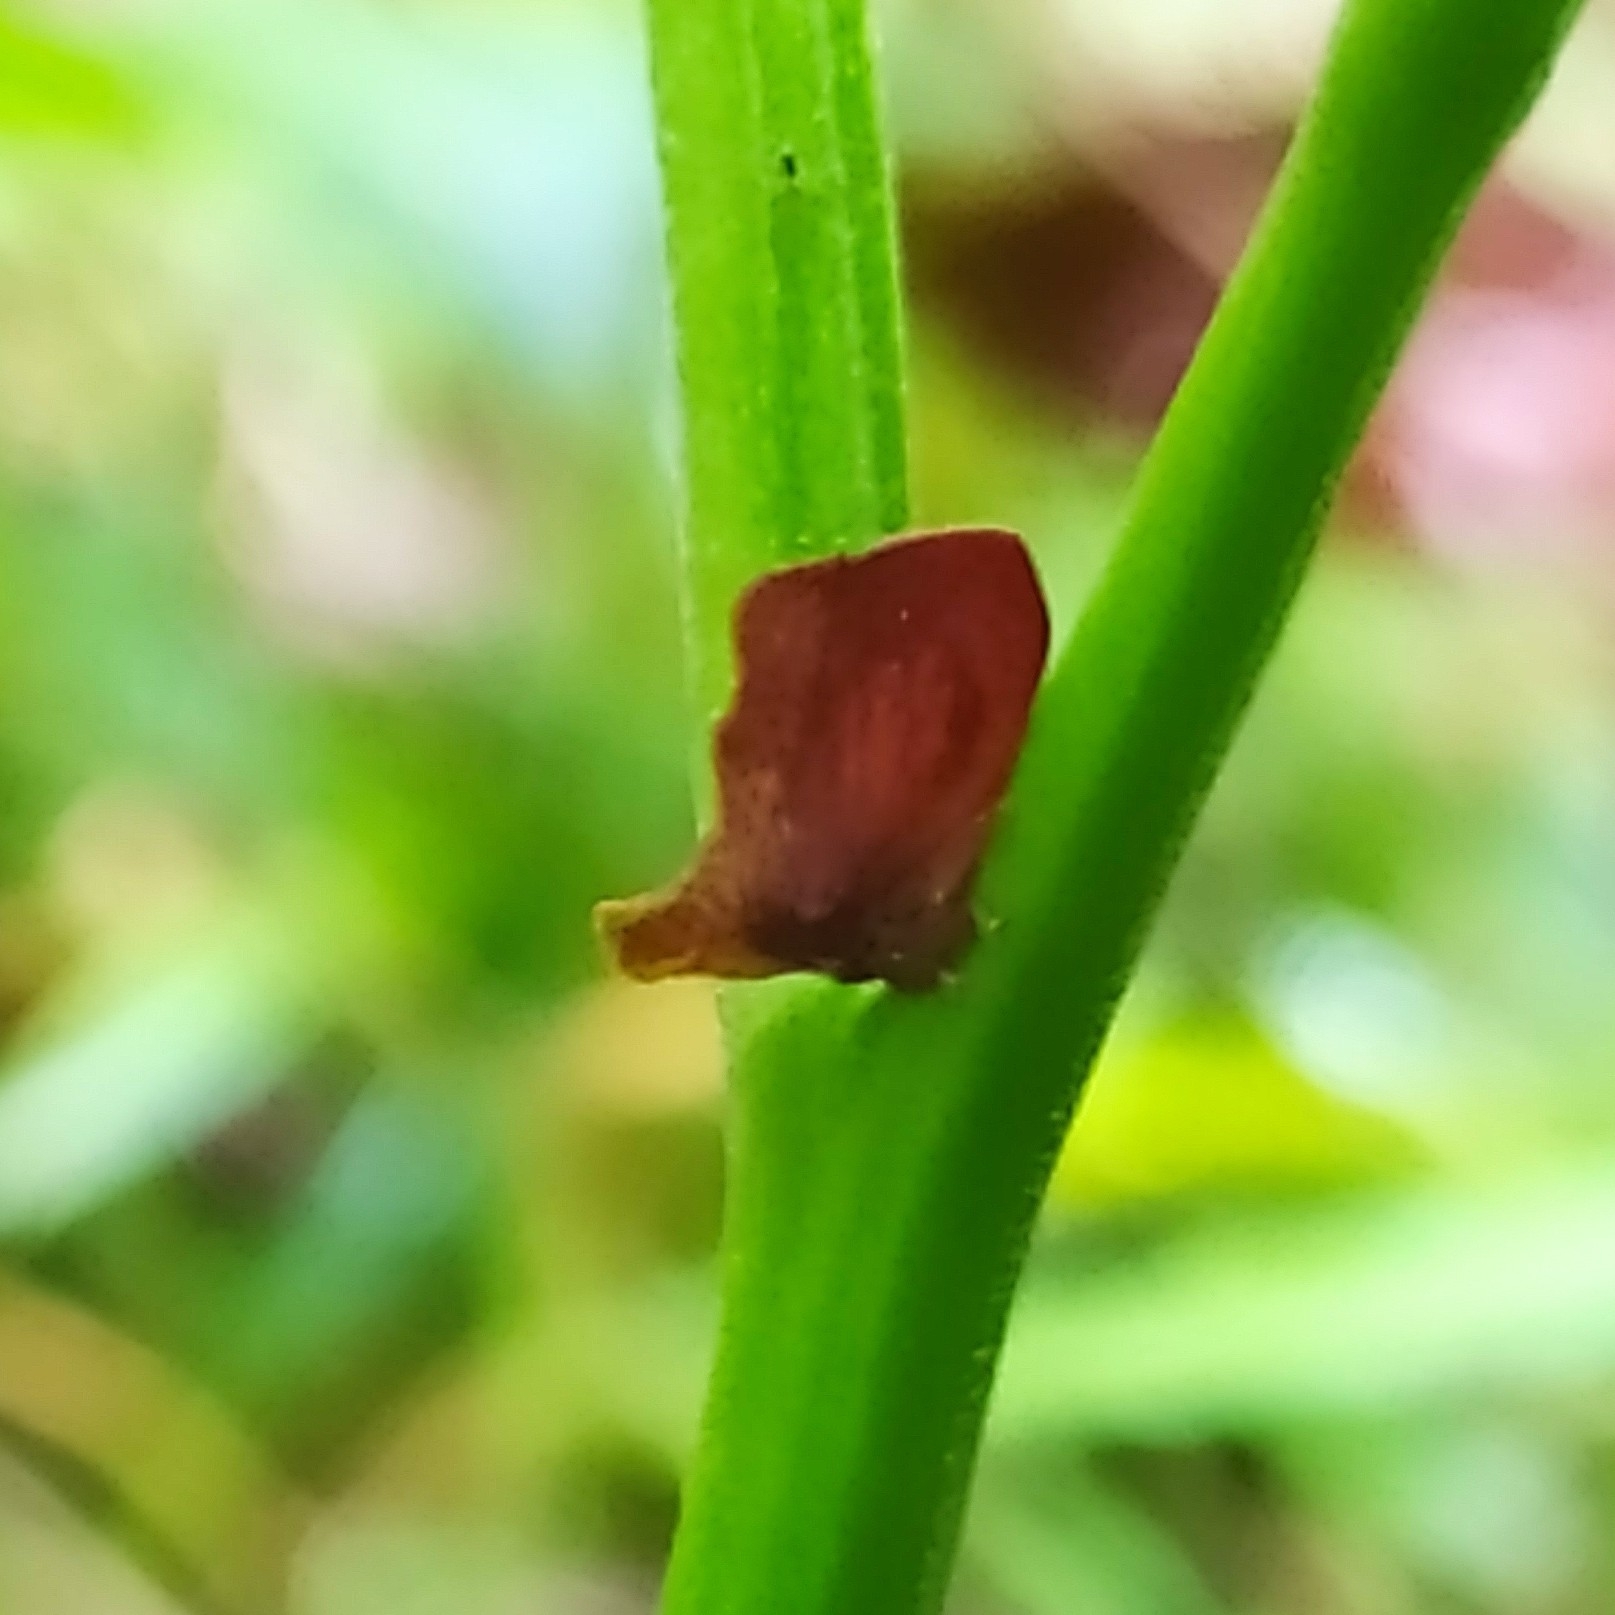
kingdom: Animalia
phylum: Arthropoda
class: Insecta
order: Hemiptera
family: Membracidae
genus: Stegaspis
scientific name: Stegaspis fronditia
